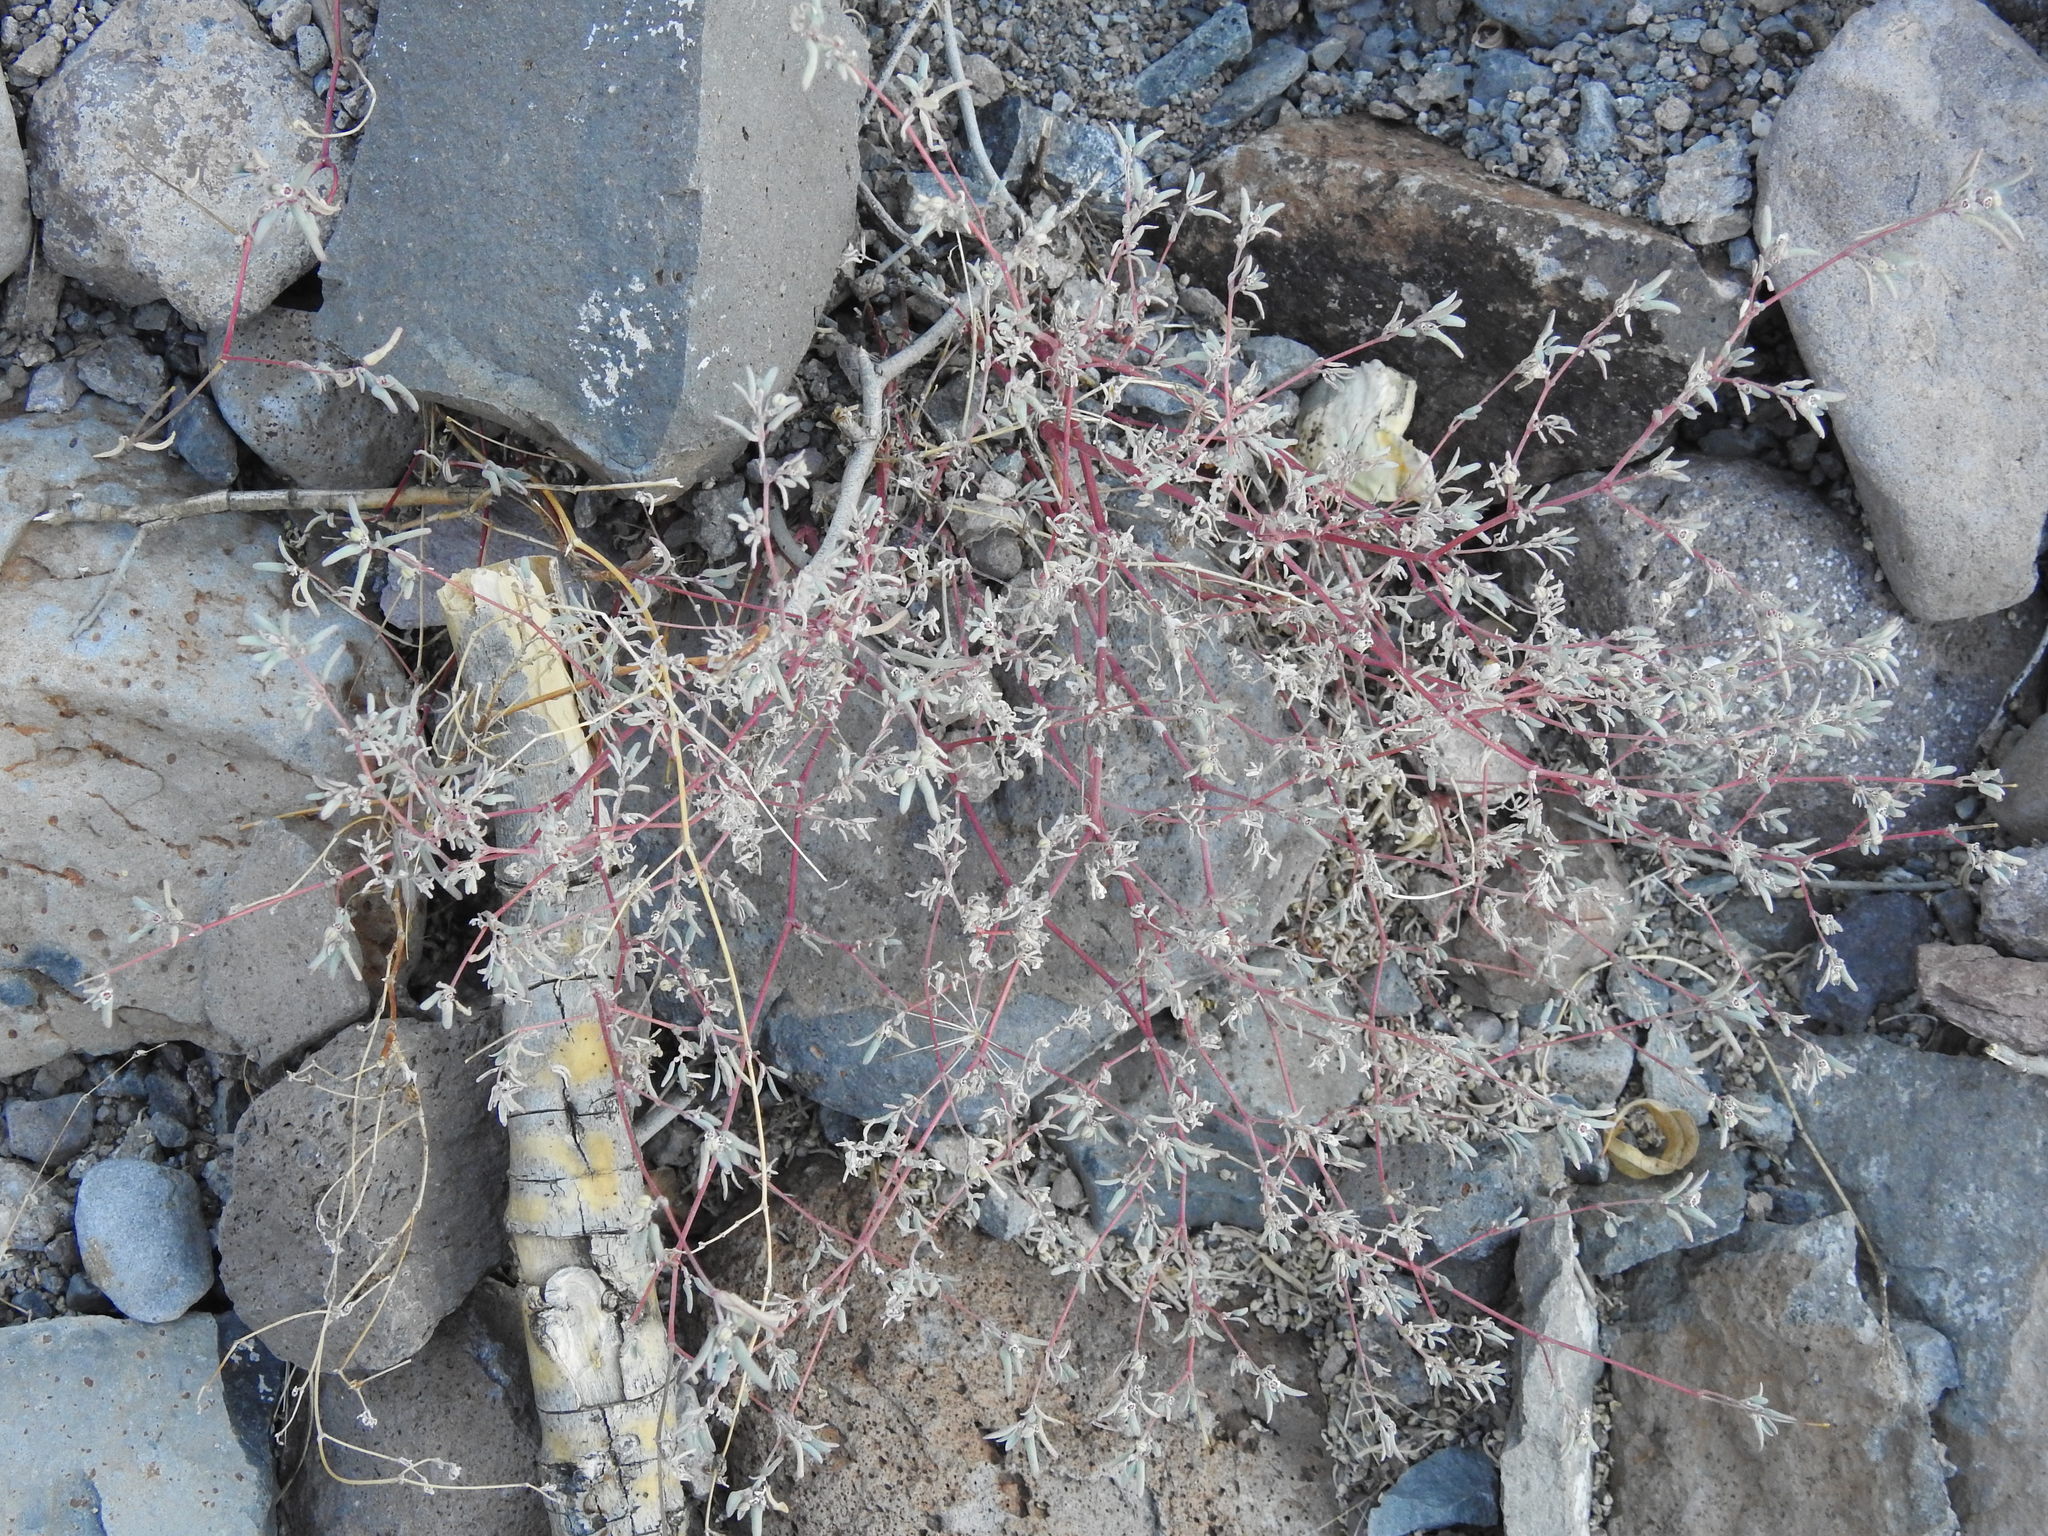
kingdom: Plantae
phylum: Tracheophyta
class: Magnoliopsida
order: Malpighiales
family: Euphorbiaceae
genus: Euphorbia
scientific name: Euphorbia pediculifera
